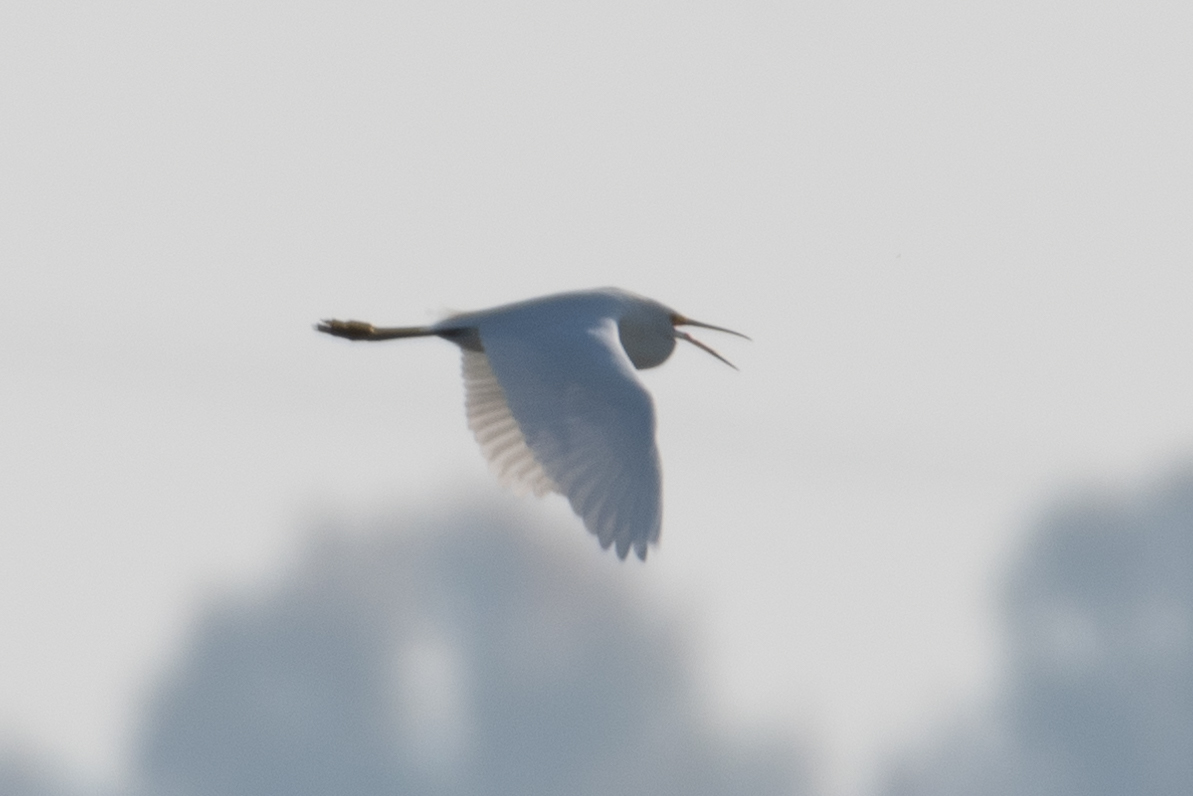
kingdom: Animalia
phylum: Chordata
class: Aves
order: Pelecaniformes
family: Ardeidae
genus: Egretta
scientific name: Egretta thula
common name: Snowy egret
